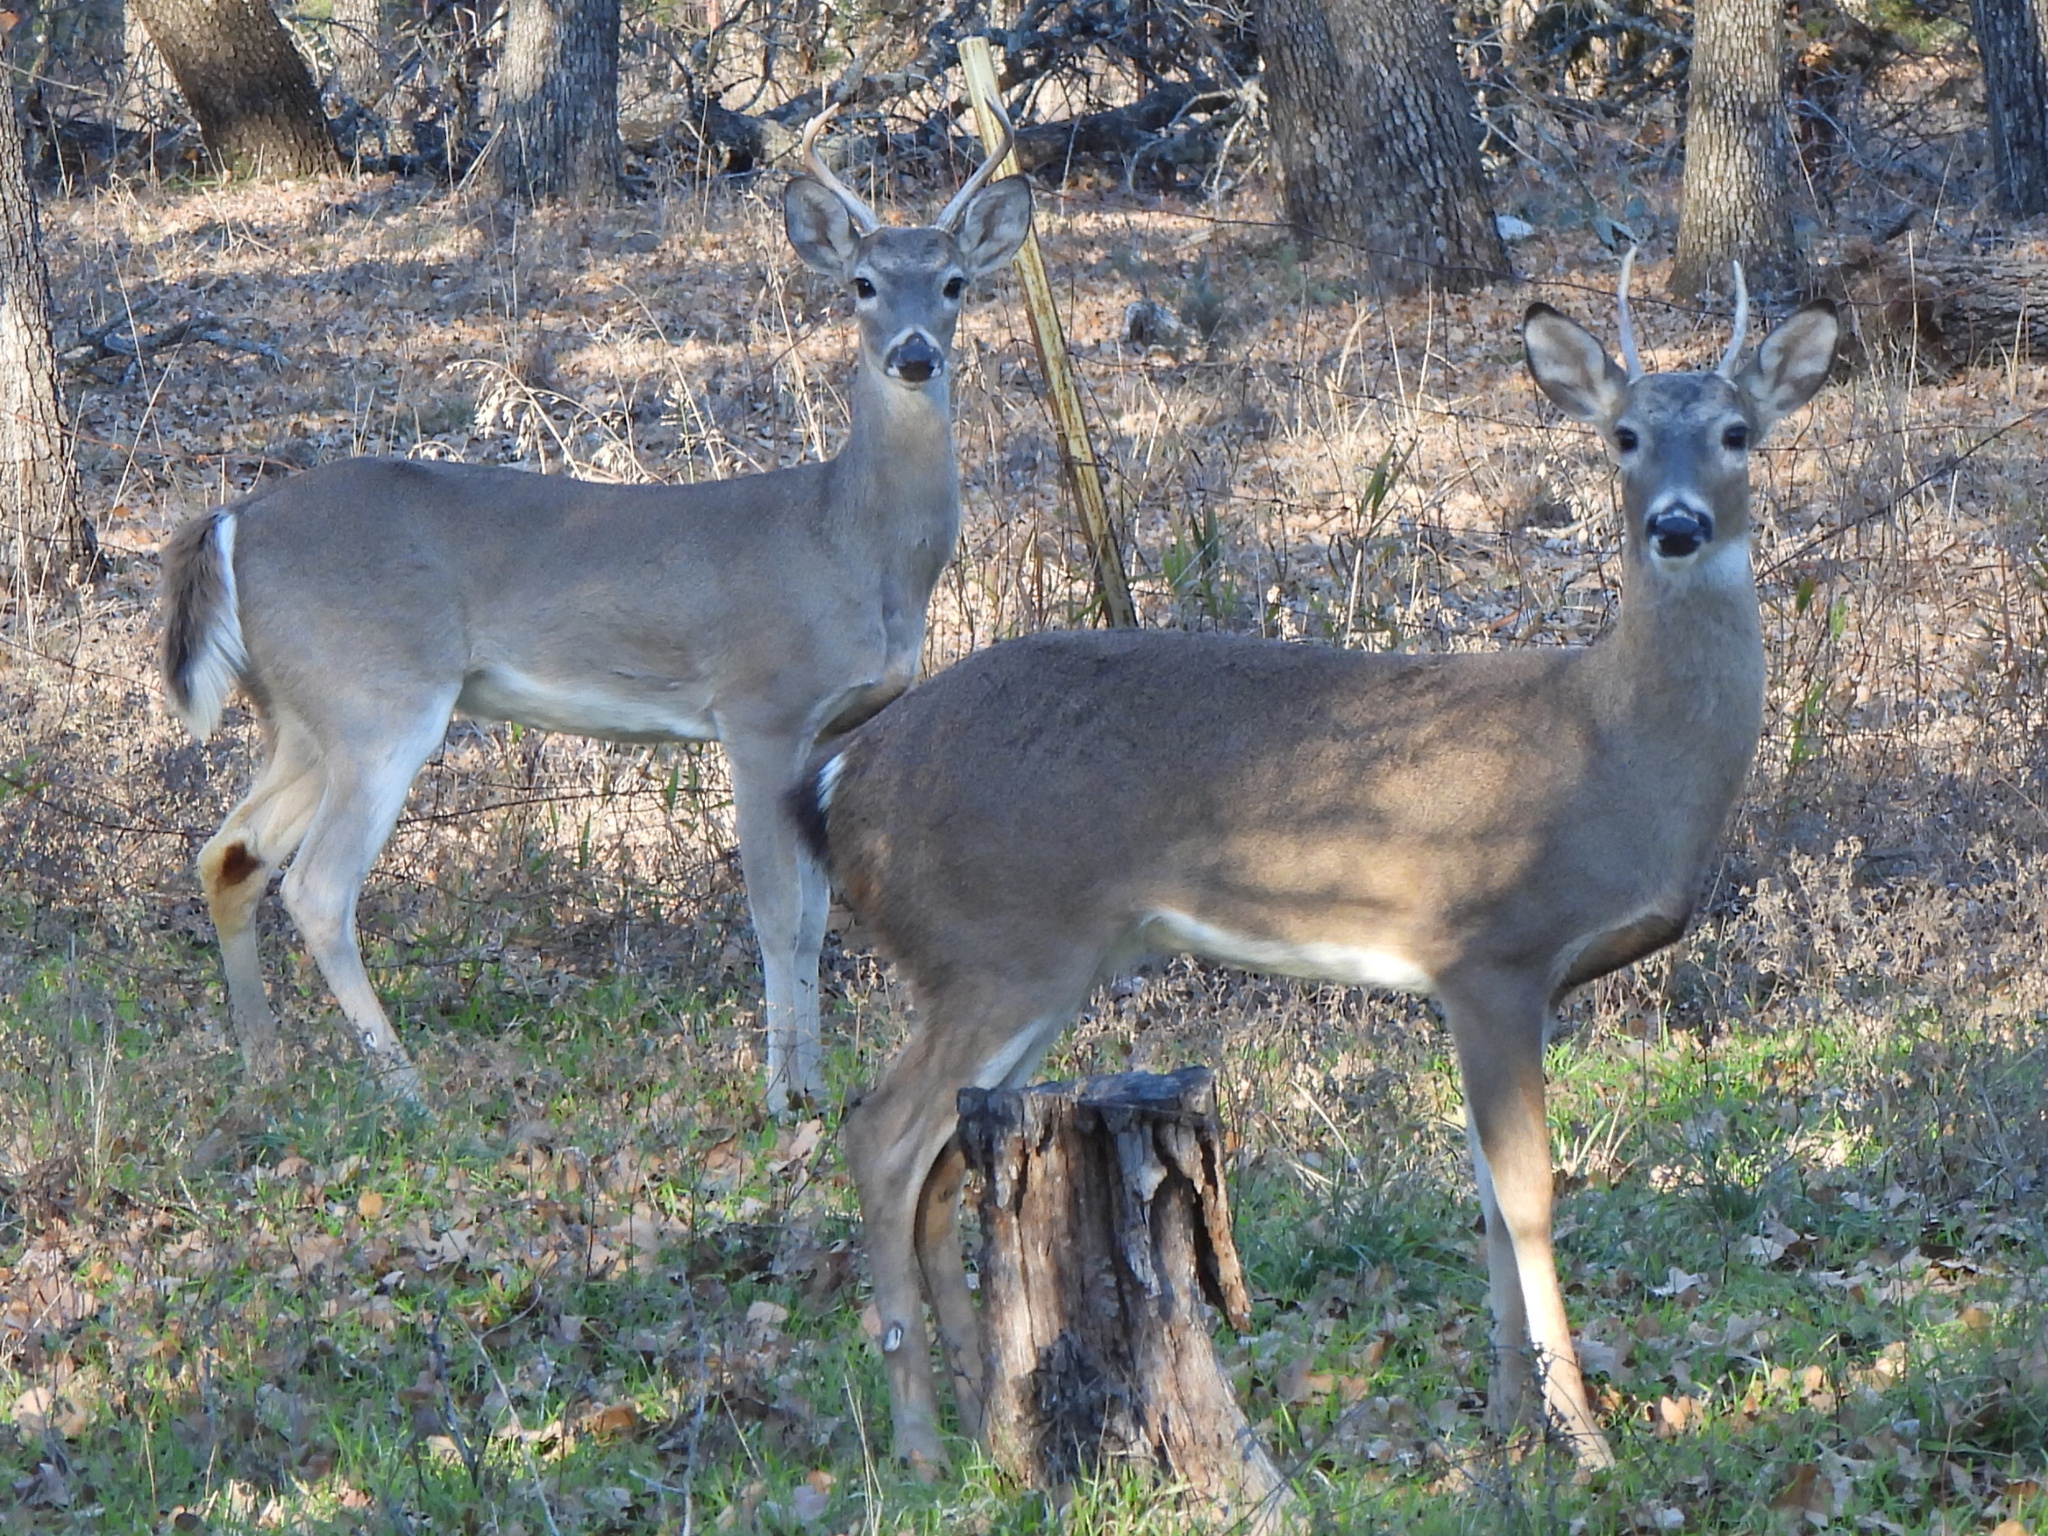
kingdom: Animalia
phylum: Chordata
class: Mammalia
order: Artiodactyla
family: Cervidae
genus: Odocoileus
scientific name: Odocoileus virginianus
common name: White-tailed deer
